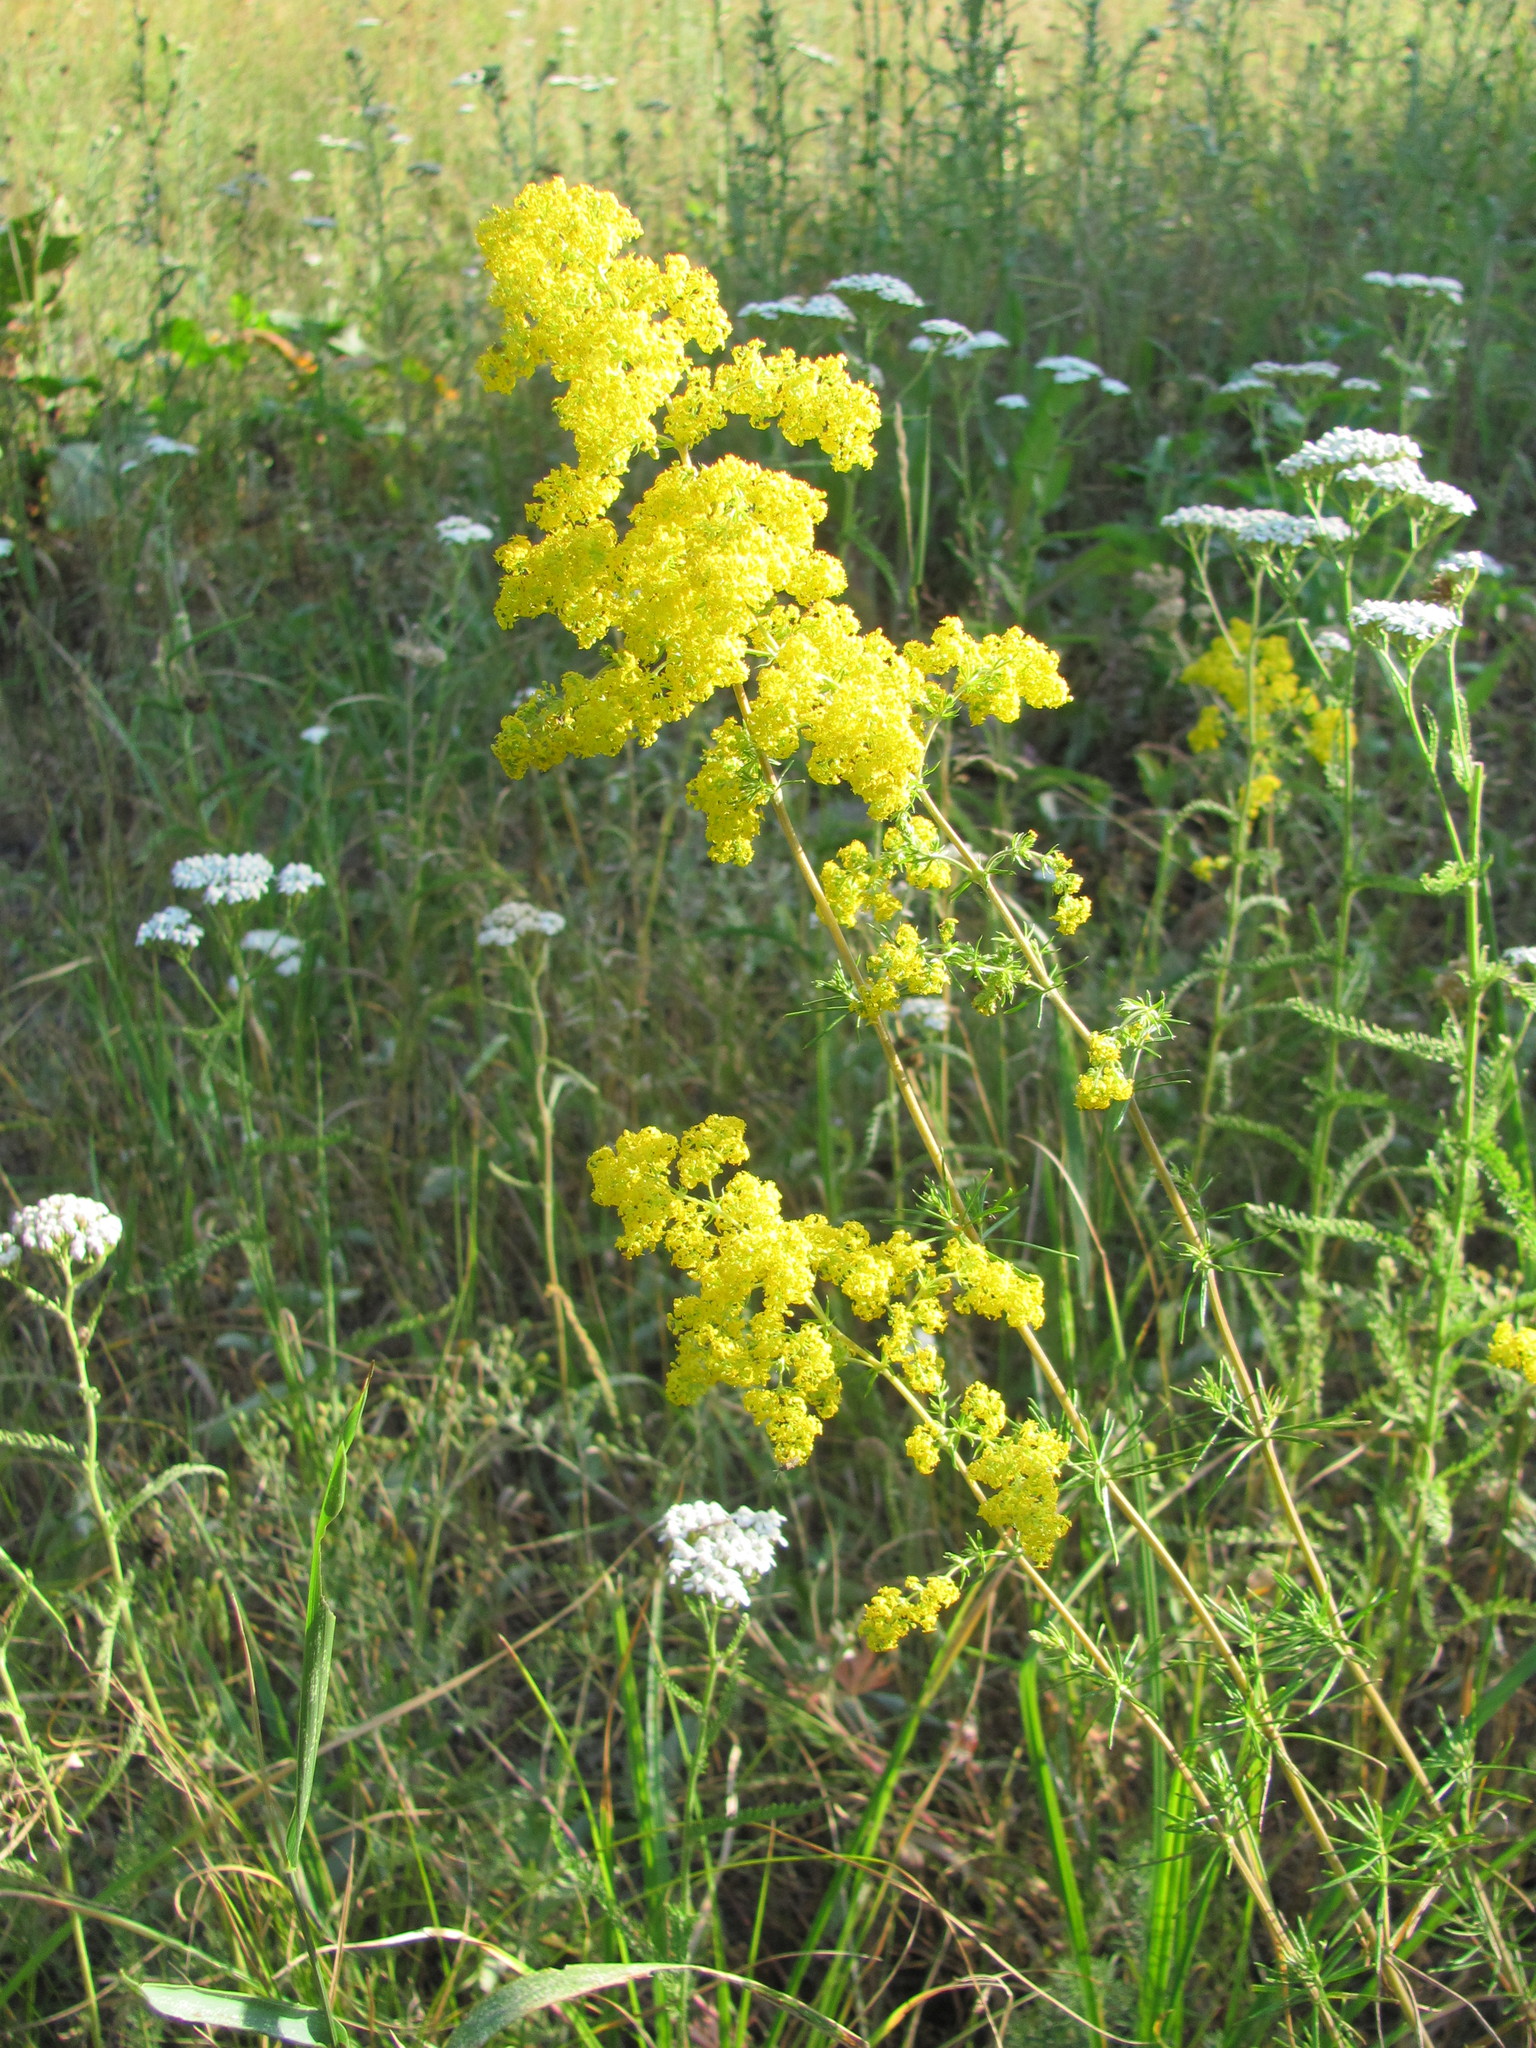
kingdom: Plantae
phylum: Tracheophyta
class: Magnoliopsida
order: Gentianales
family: Rubiaceae
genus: Galium
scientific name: Galium verum
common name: Lady's bedstraw
